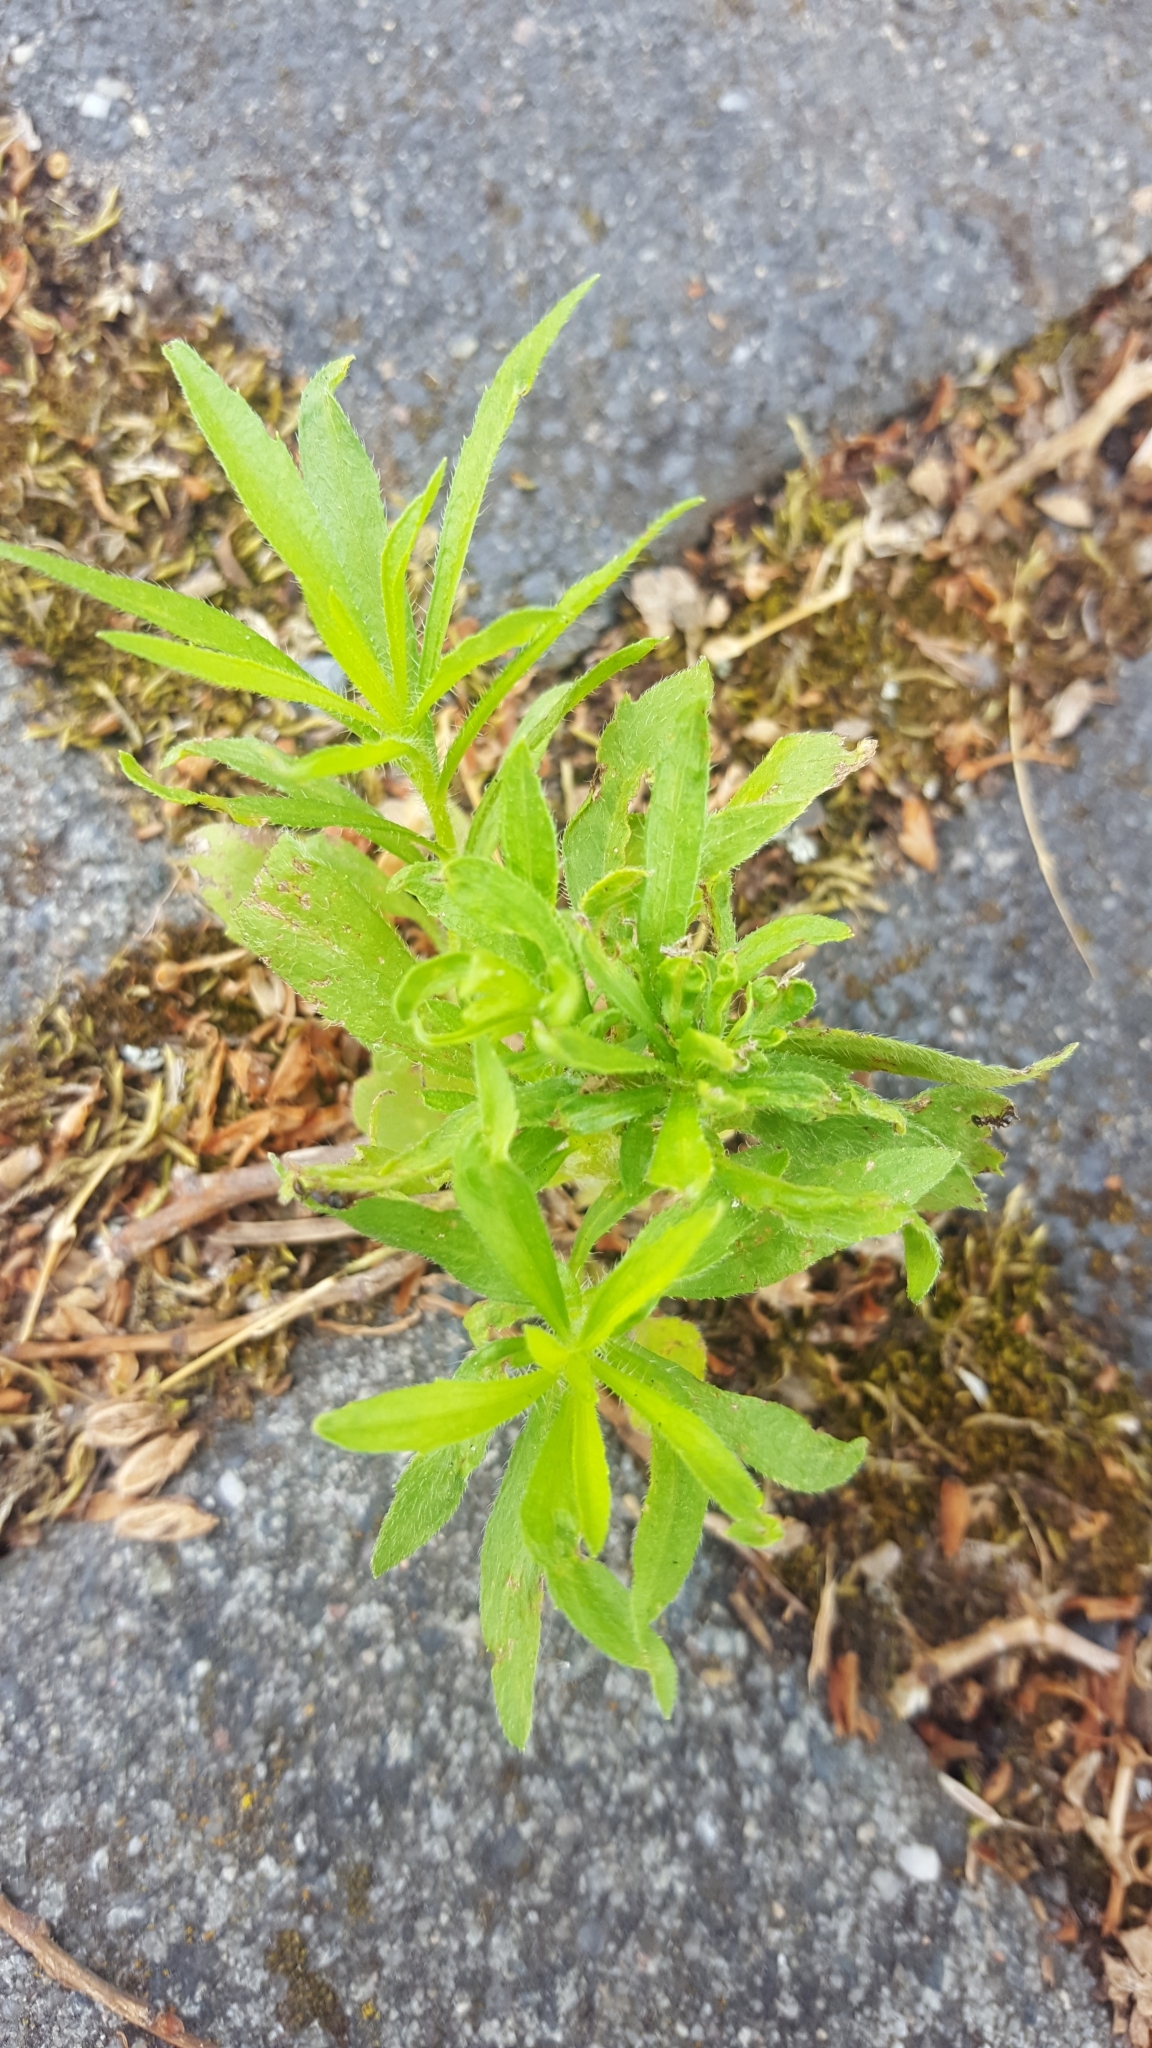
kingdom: Plantae
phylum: Tracheophyta
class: Magnoliopsida
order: Asterales
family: Asteraceae
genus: Erigeron
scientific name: Erigeron canadensis
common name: Canadian fleabane
